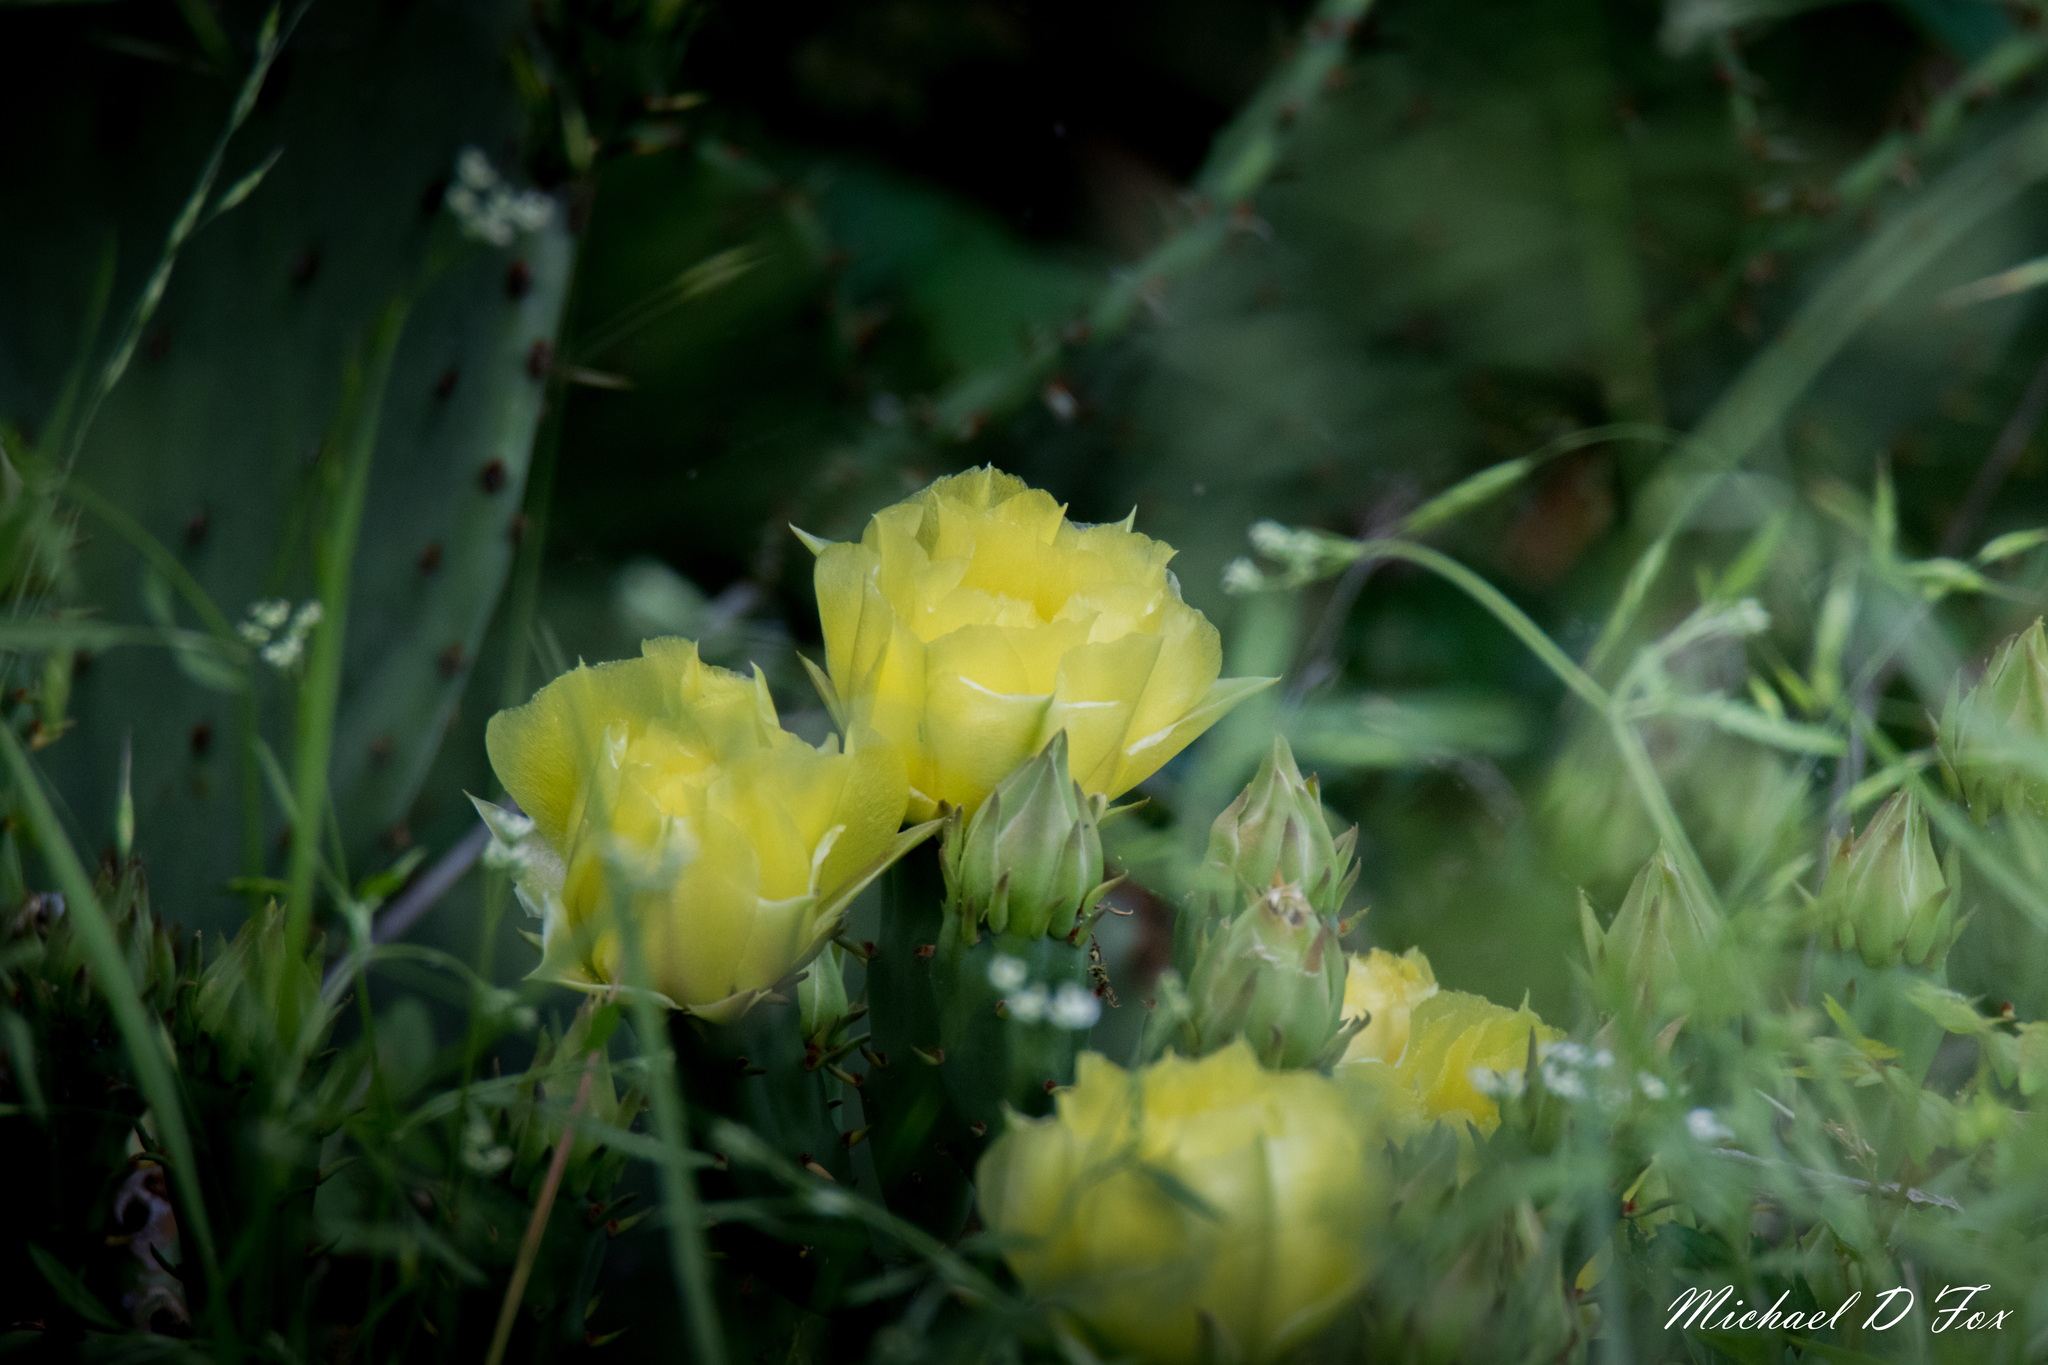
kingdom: Plantae
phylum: Tracheophyta
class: Magnoliopsida
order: Caryophyllales
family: Cactaceae
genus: Opuntia
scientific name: Opuntia cymochila
